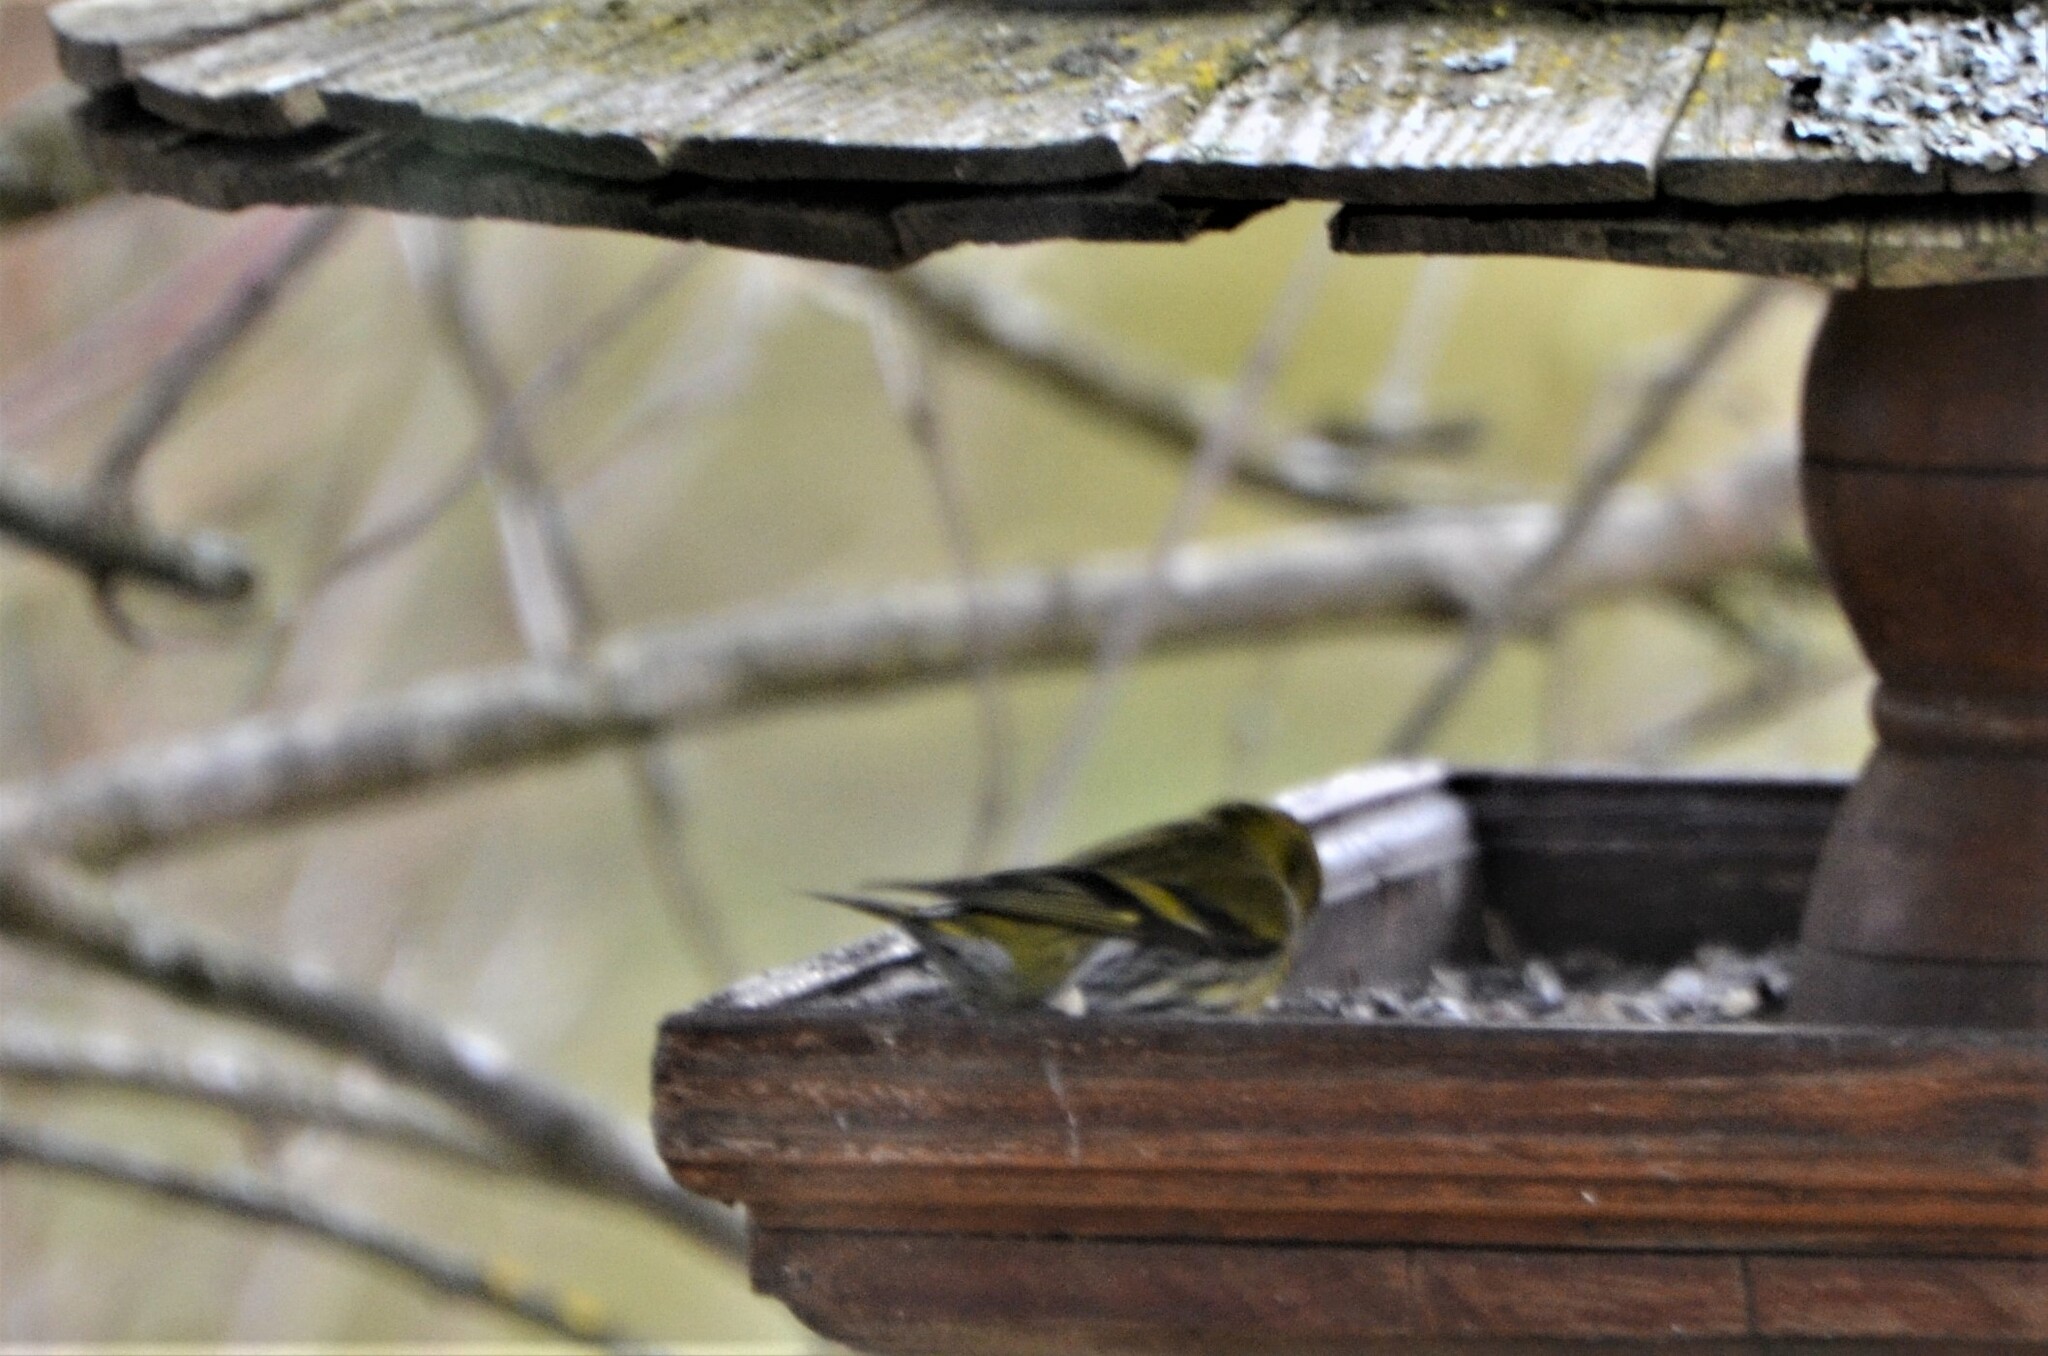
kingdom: Animalia
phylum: Chordata
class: Aves
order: Passeriformes
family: Fringillidae
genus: Spinus
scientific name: Spinus spinus
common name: Eurasian siskin
